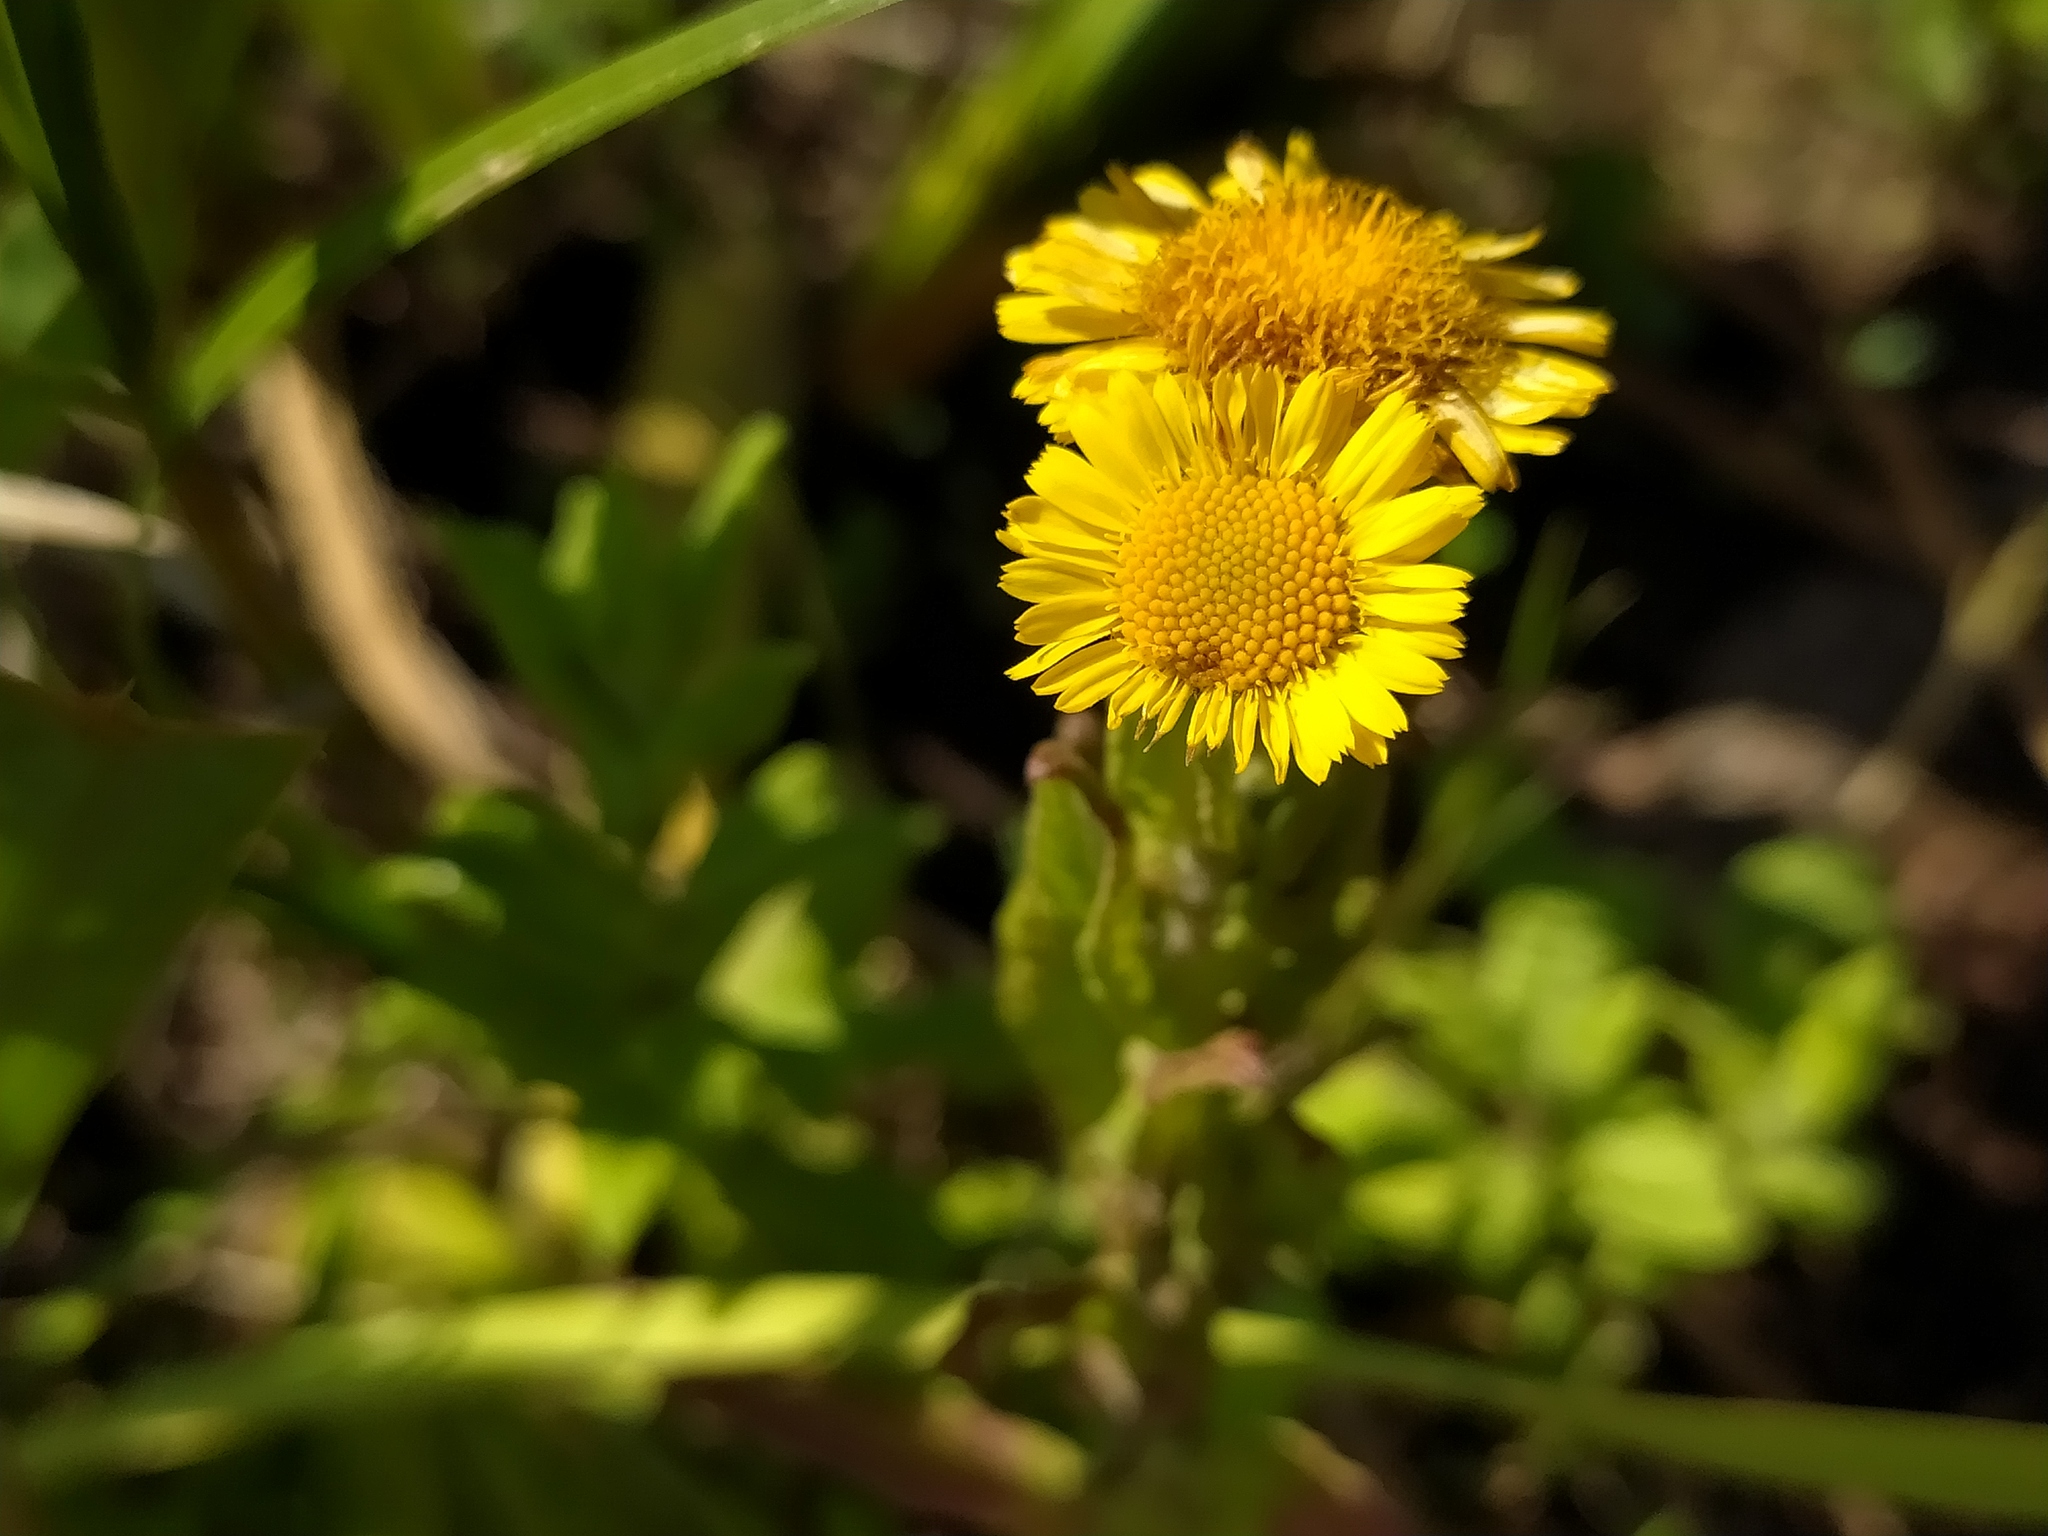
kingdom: Plantae
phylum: Tracheophyta
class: Magnoliopsida
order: Asterales
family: Asteraceae
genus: Pulicaria
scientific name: Pulicaria dysenterica
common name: Common fleabane
